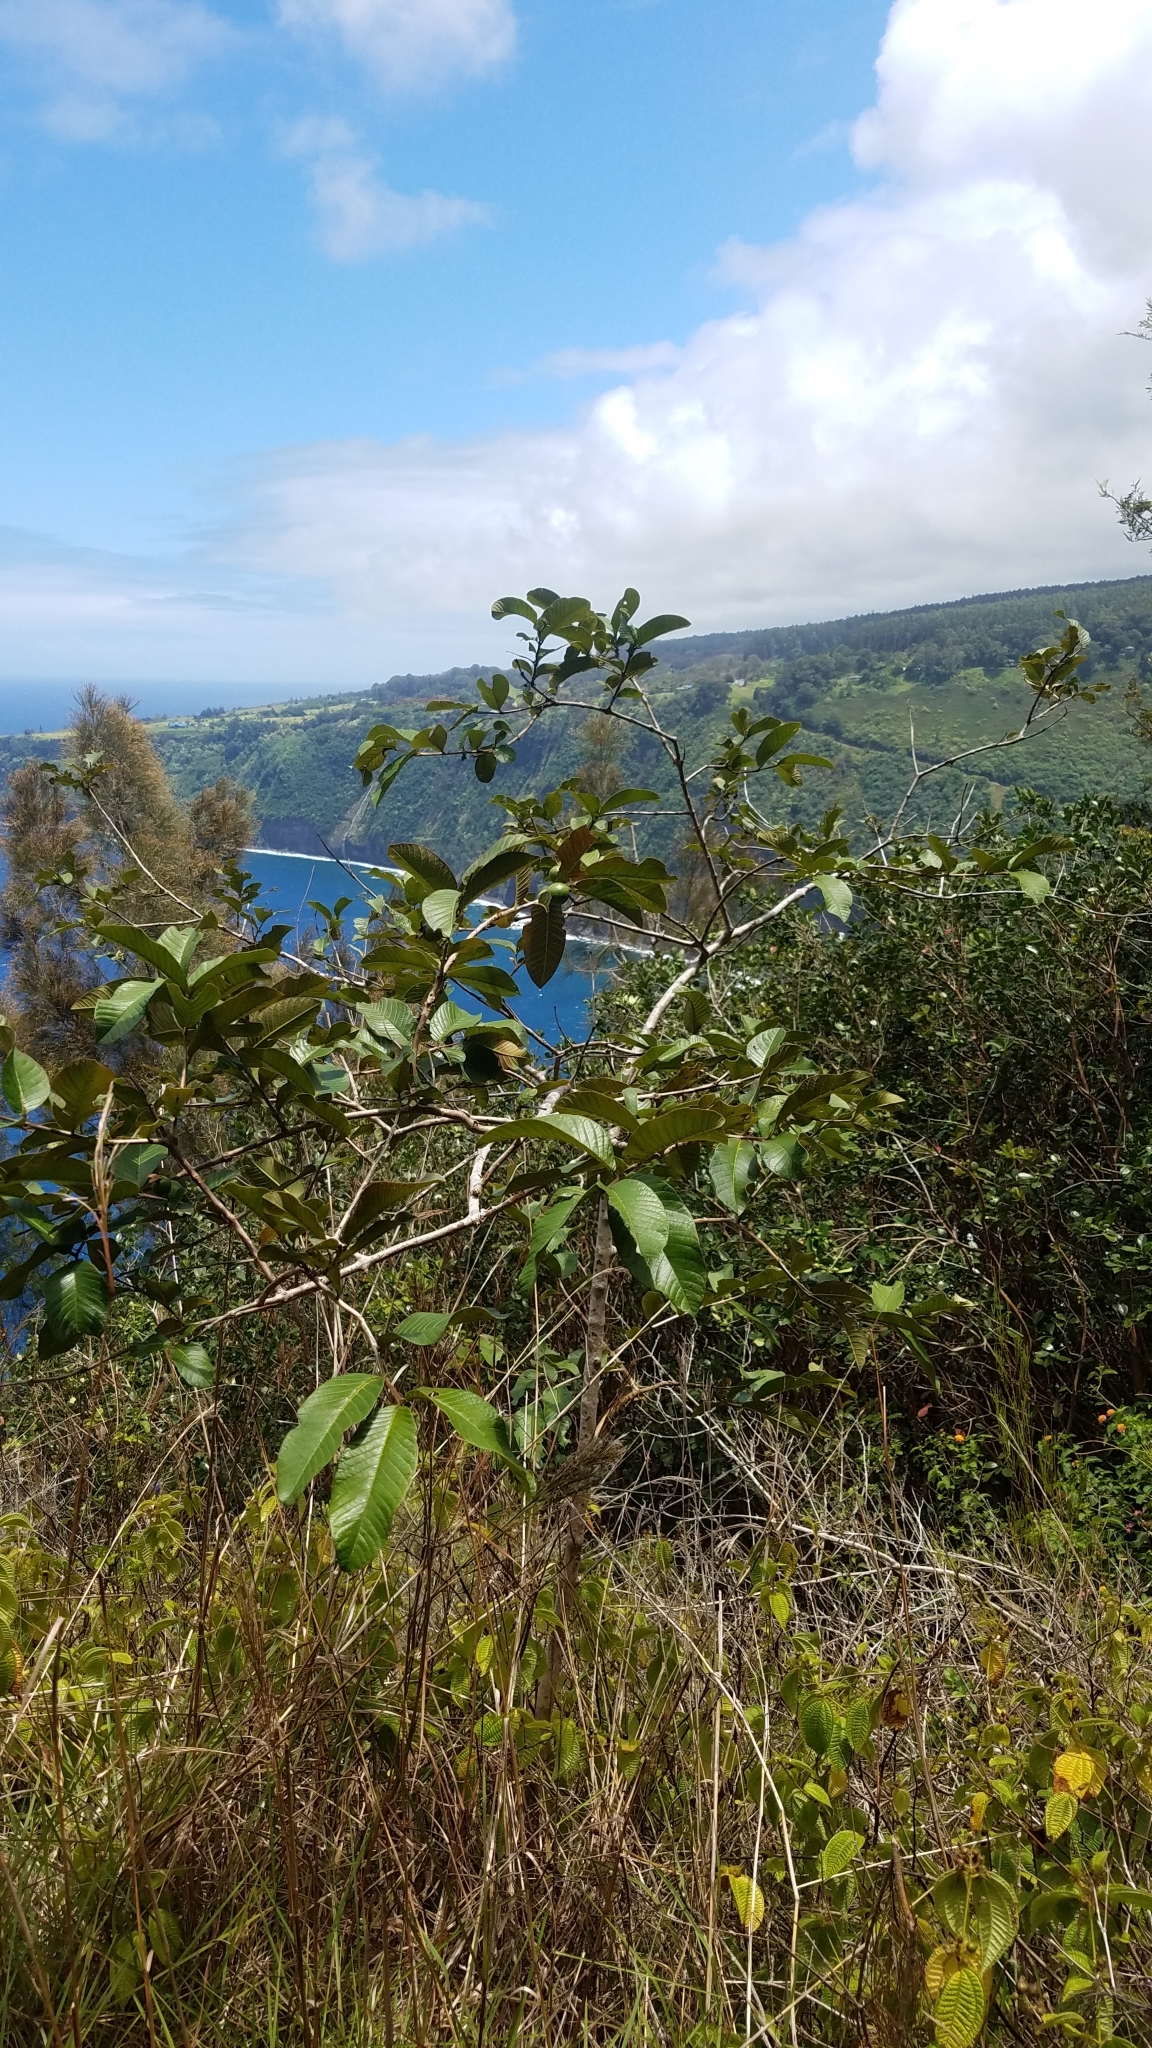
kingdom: Plantae
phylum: Tracheophyta
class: Magnoliopsida
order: Myrtales
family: Myrtaceae
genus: Psidium
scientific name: Psidium guajava
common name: Guava
